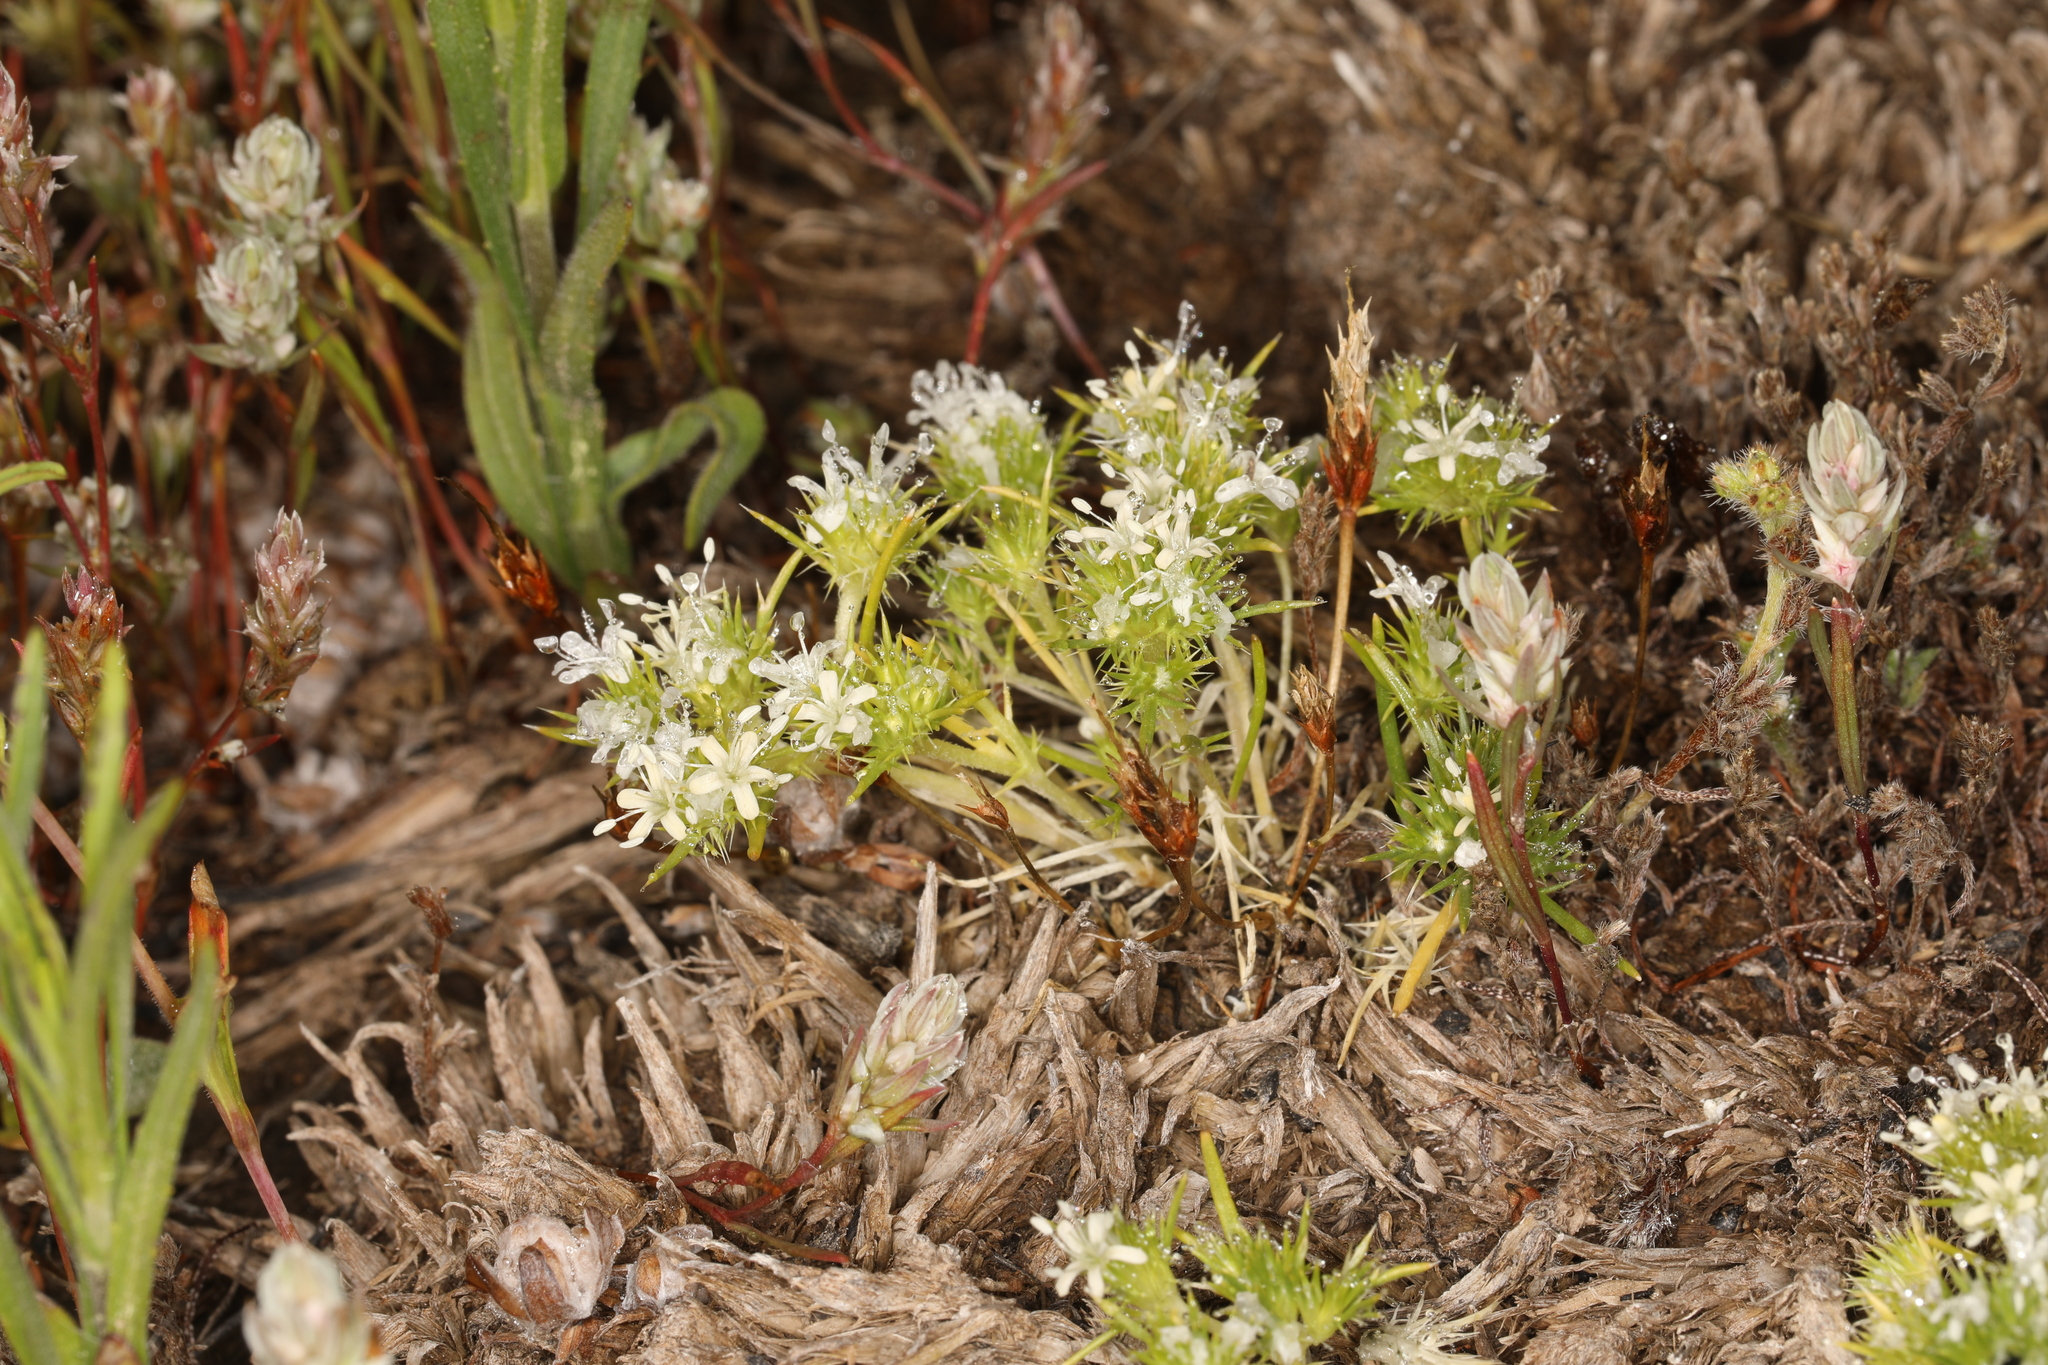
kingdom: Plantae
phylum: Tracheophyta
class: Magnoliopsida
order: Ericales
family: Polemoniaceae
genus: Navarretia
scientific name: Navarretia leucocephala
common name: White-flowered navarretia
